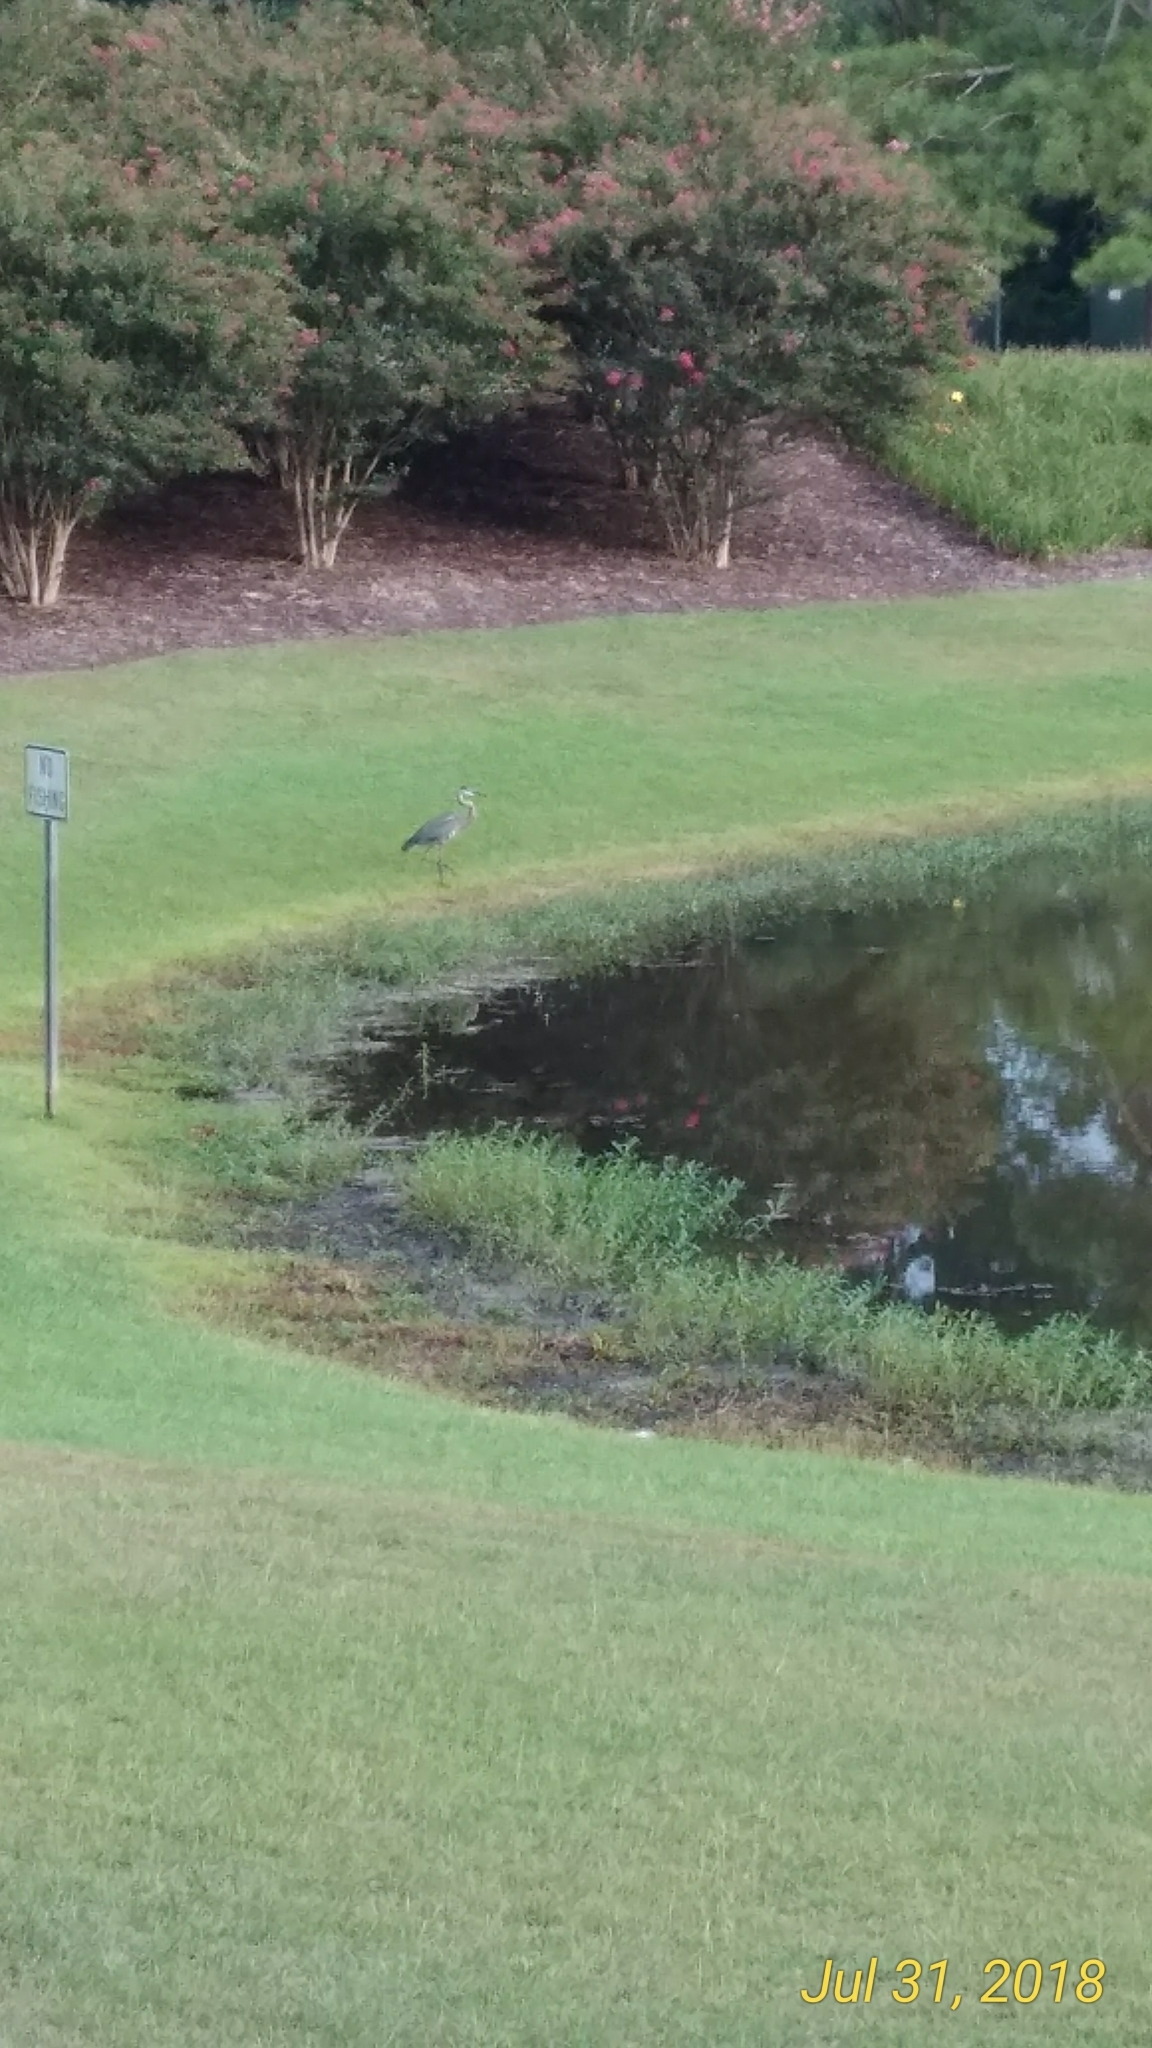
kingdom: Animalia
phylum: Chordata
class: Aves
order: Pelecaniformes
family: Ardeidae
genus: Ardea
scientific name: Ardea herodias
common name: Great blue heron
